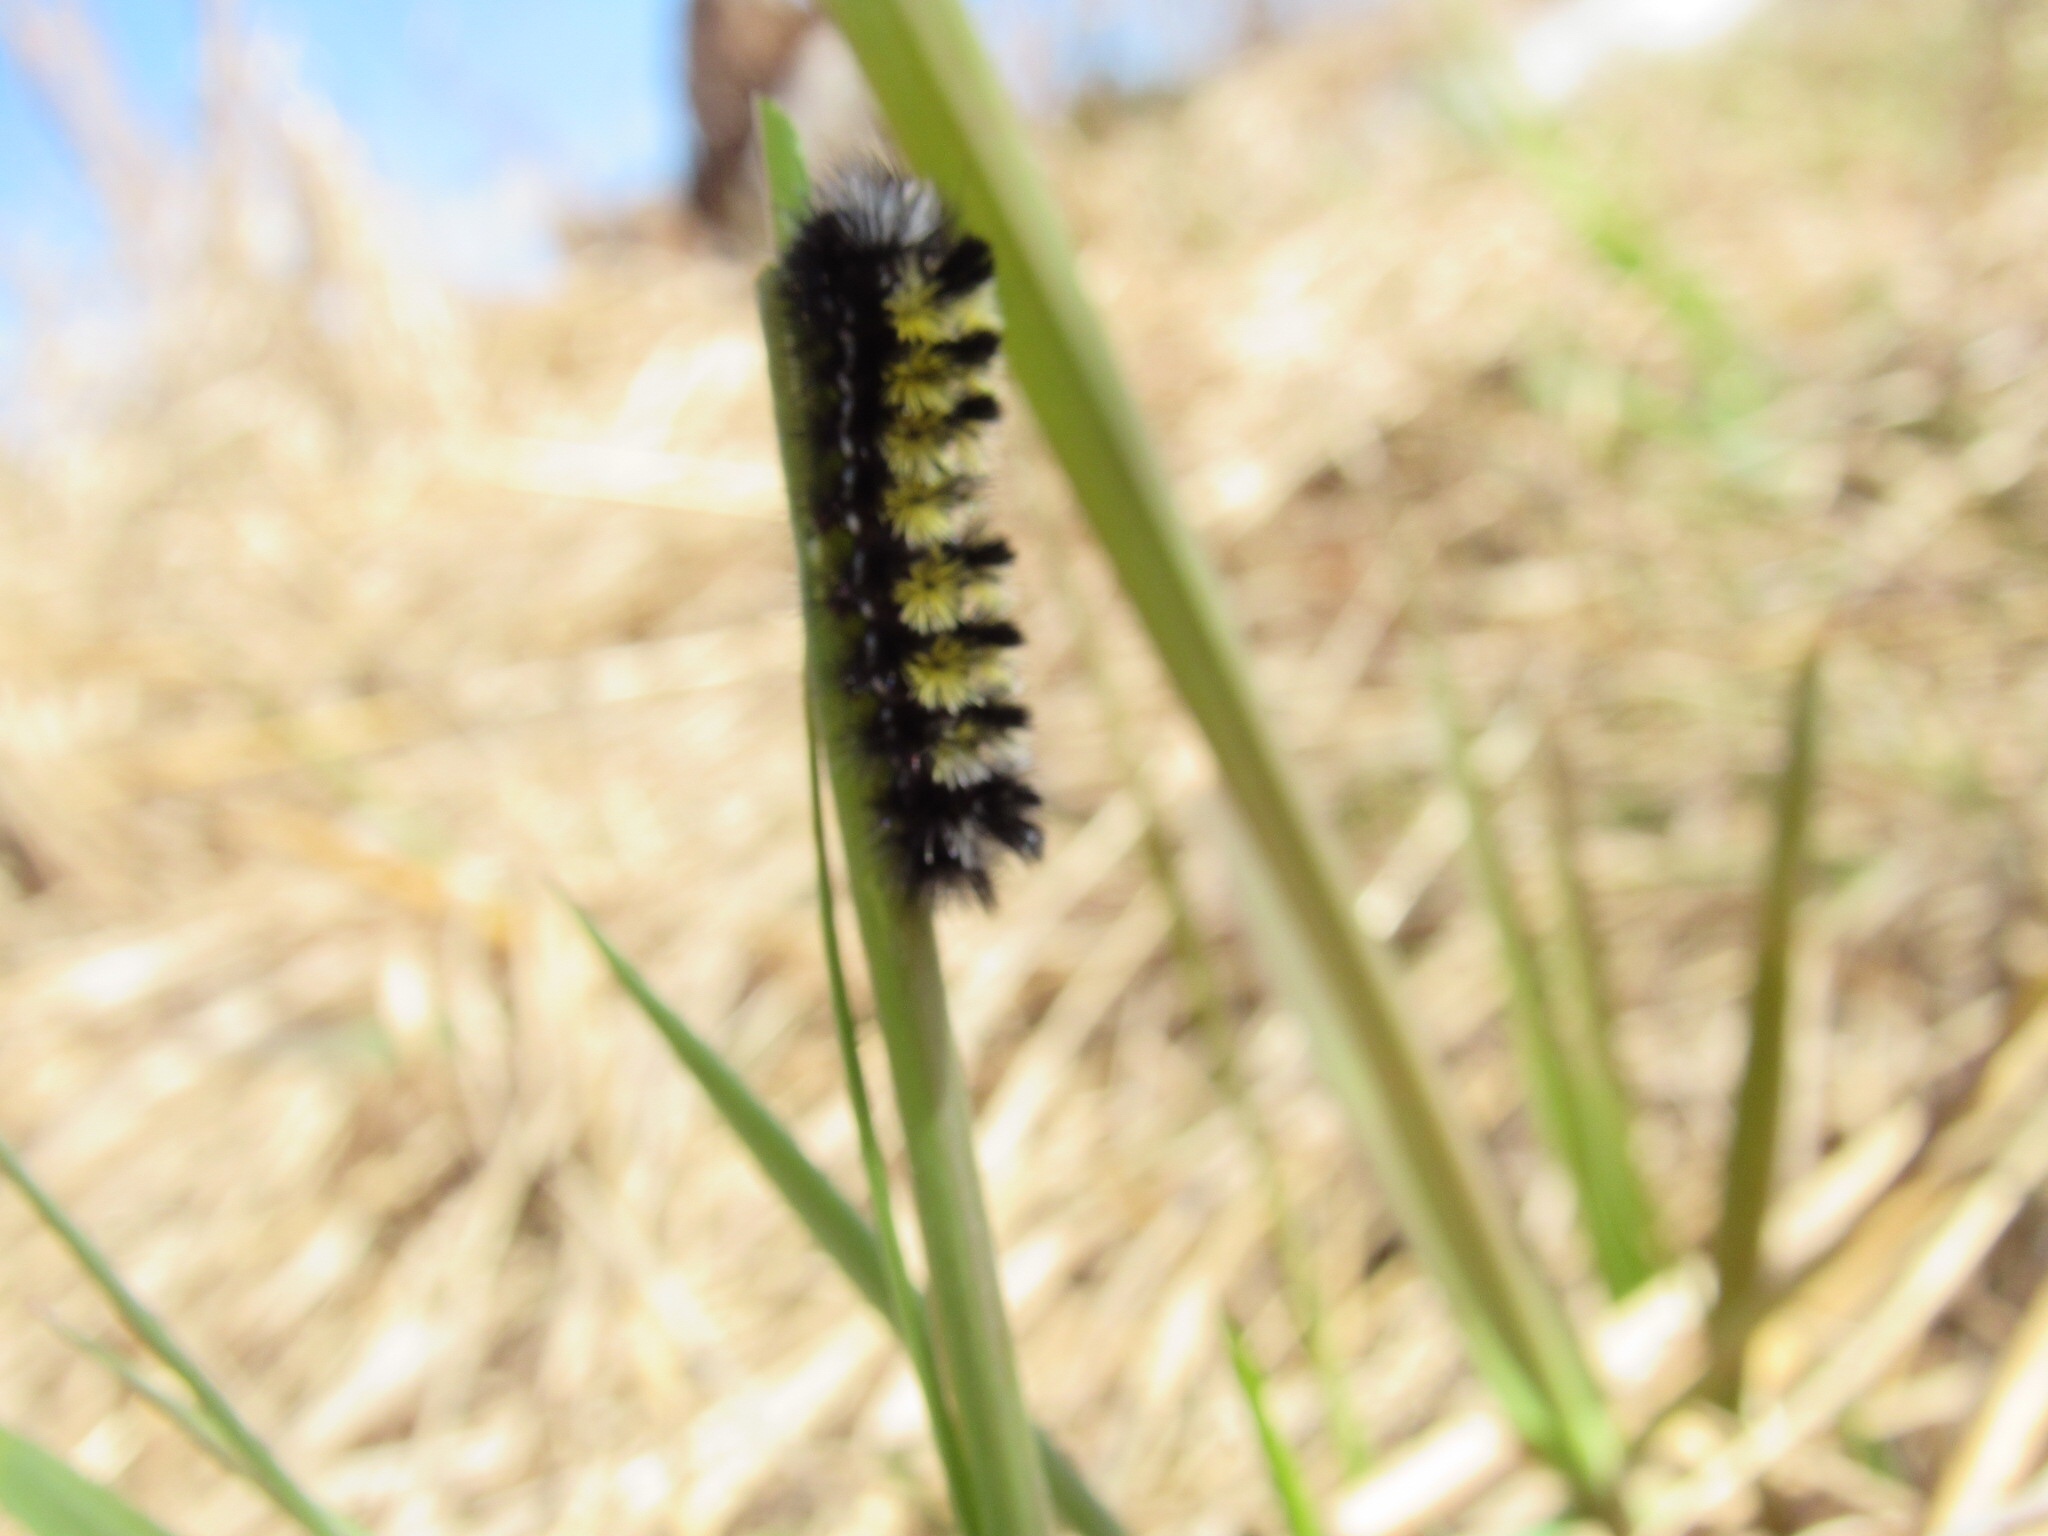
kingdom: Animalia
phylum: Arthropoda
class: Insecta
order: Lepidoptera
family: Erebidae
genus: Ctenucha
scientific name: Ctenucha virginica
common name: Virginia ctenucha moth
